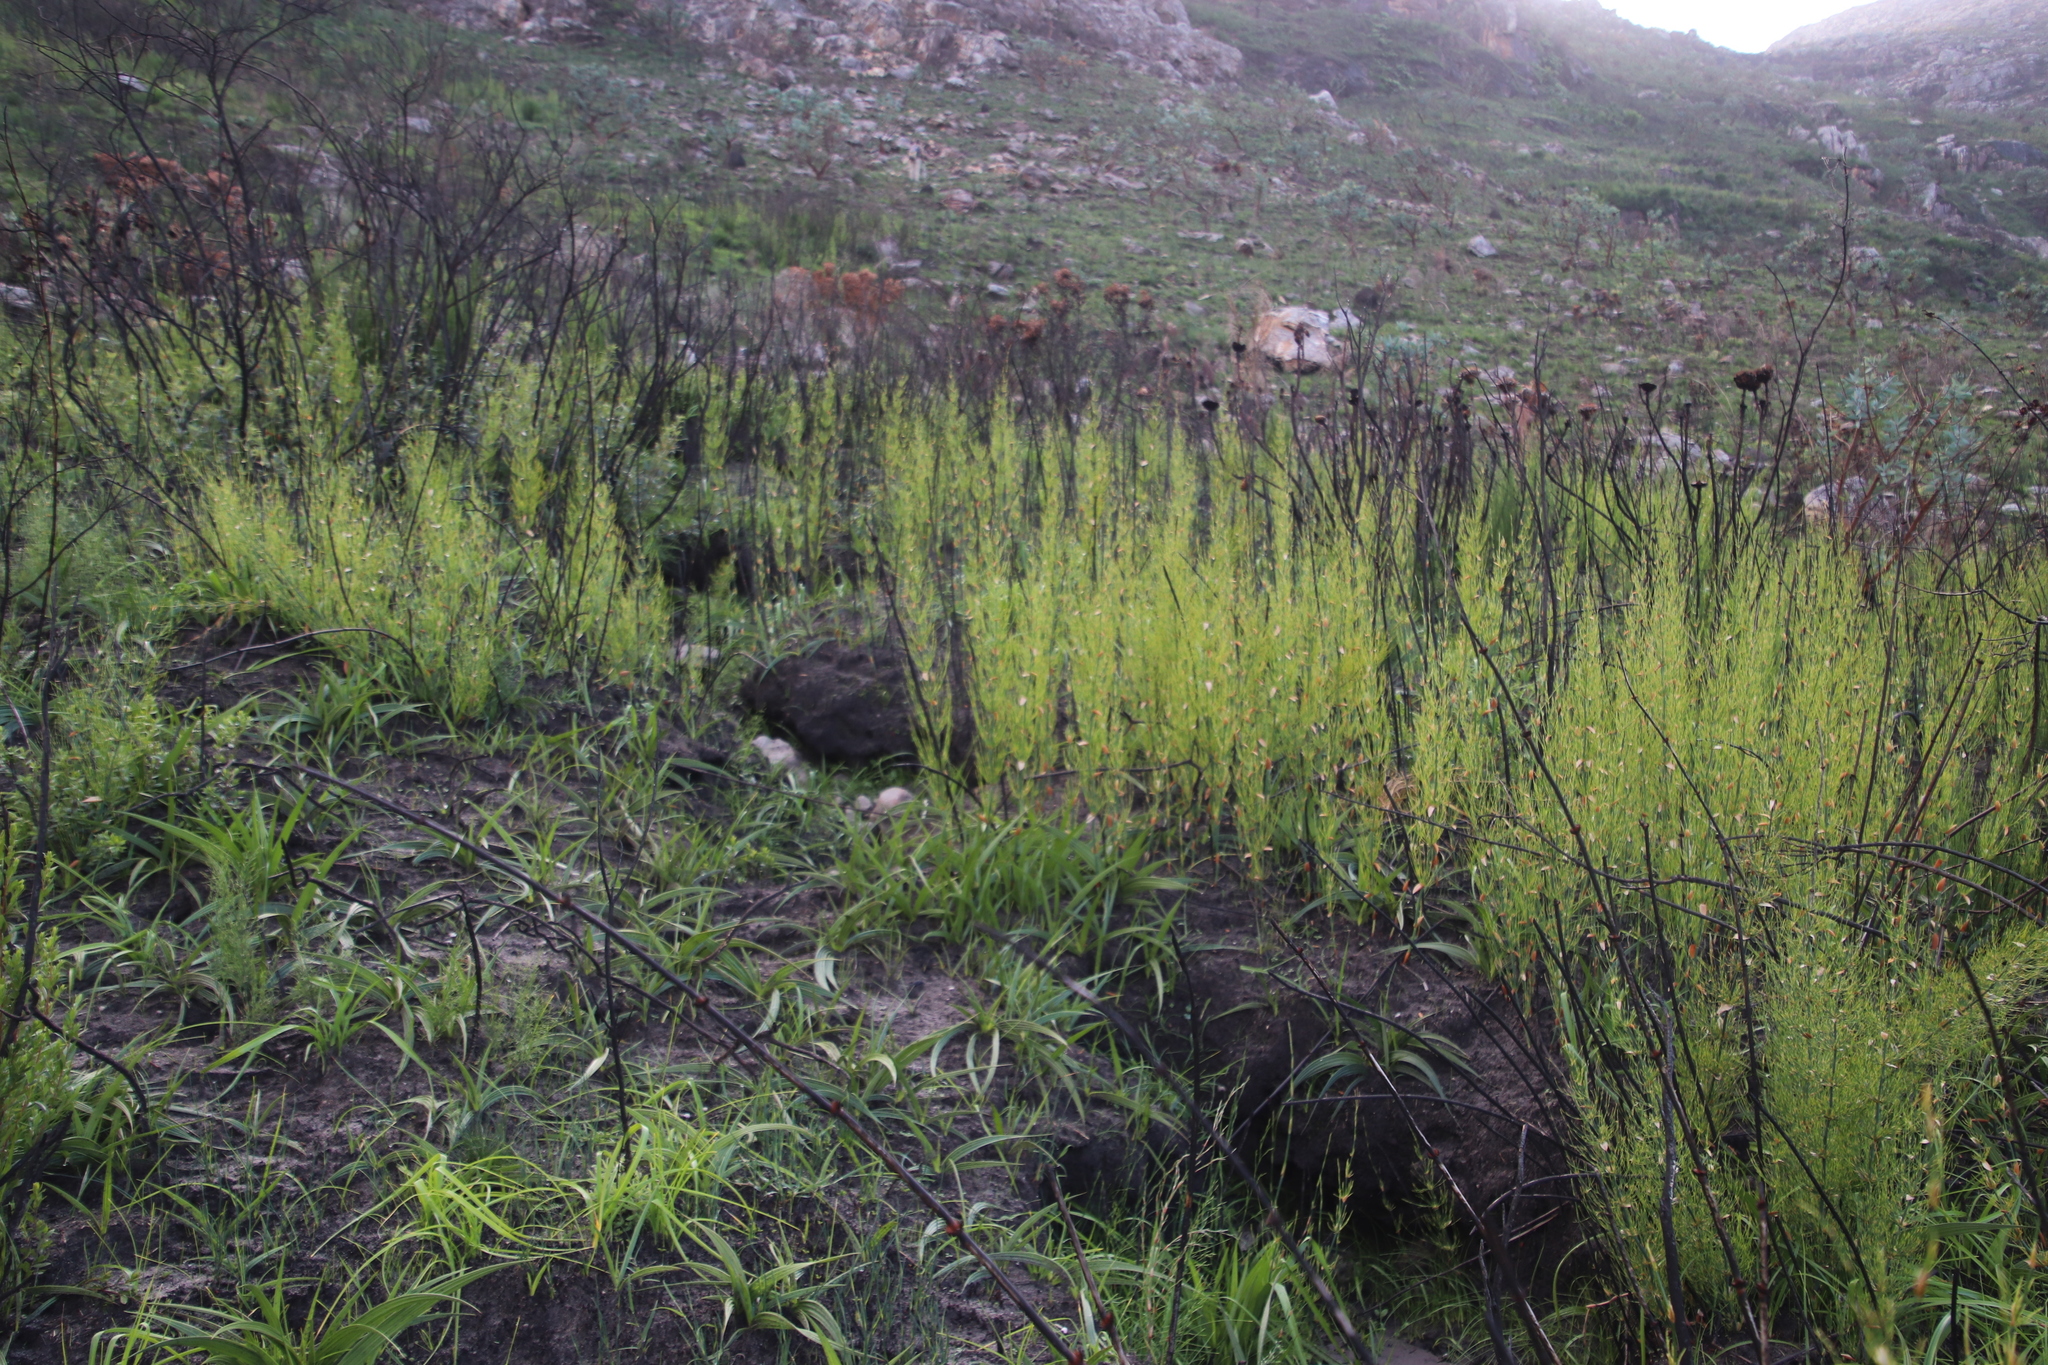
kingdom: Plantae
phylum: Tracheophyta
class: Liliopsida
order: Poales
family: Restionaceae
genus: Elegia
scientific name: Elegia capensis
